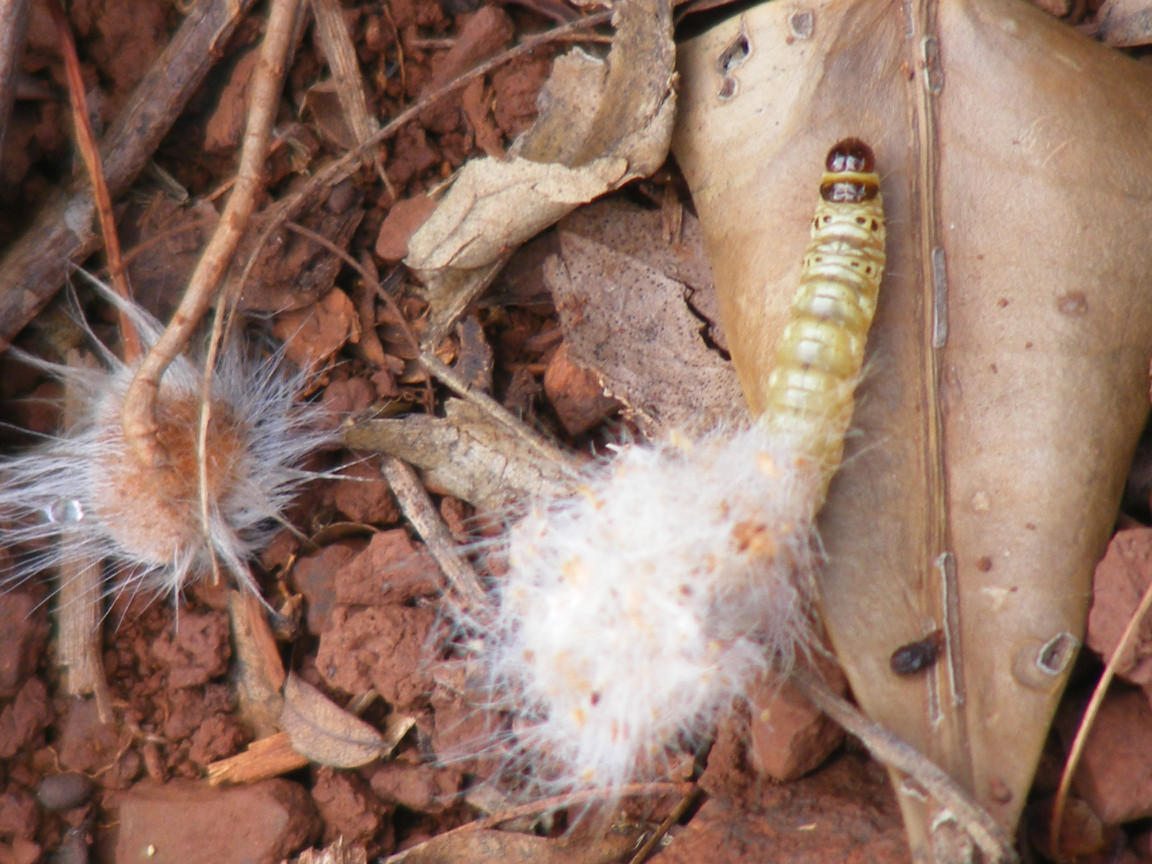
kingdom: Plantae
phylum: Tracheophyta
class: Magnoliopsida
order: Proteales
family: Proteaceae
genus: Faurea
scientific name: Faurea rochetiana
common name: Broad-leaved beech
